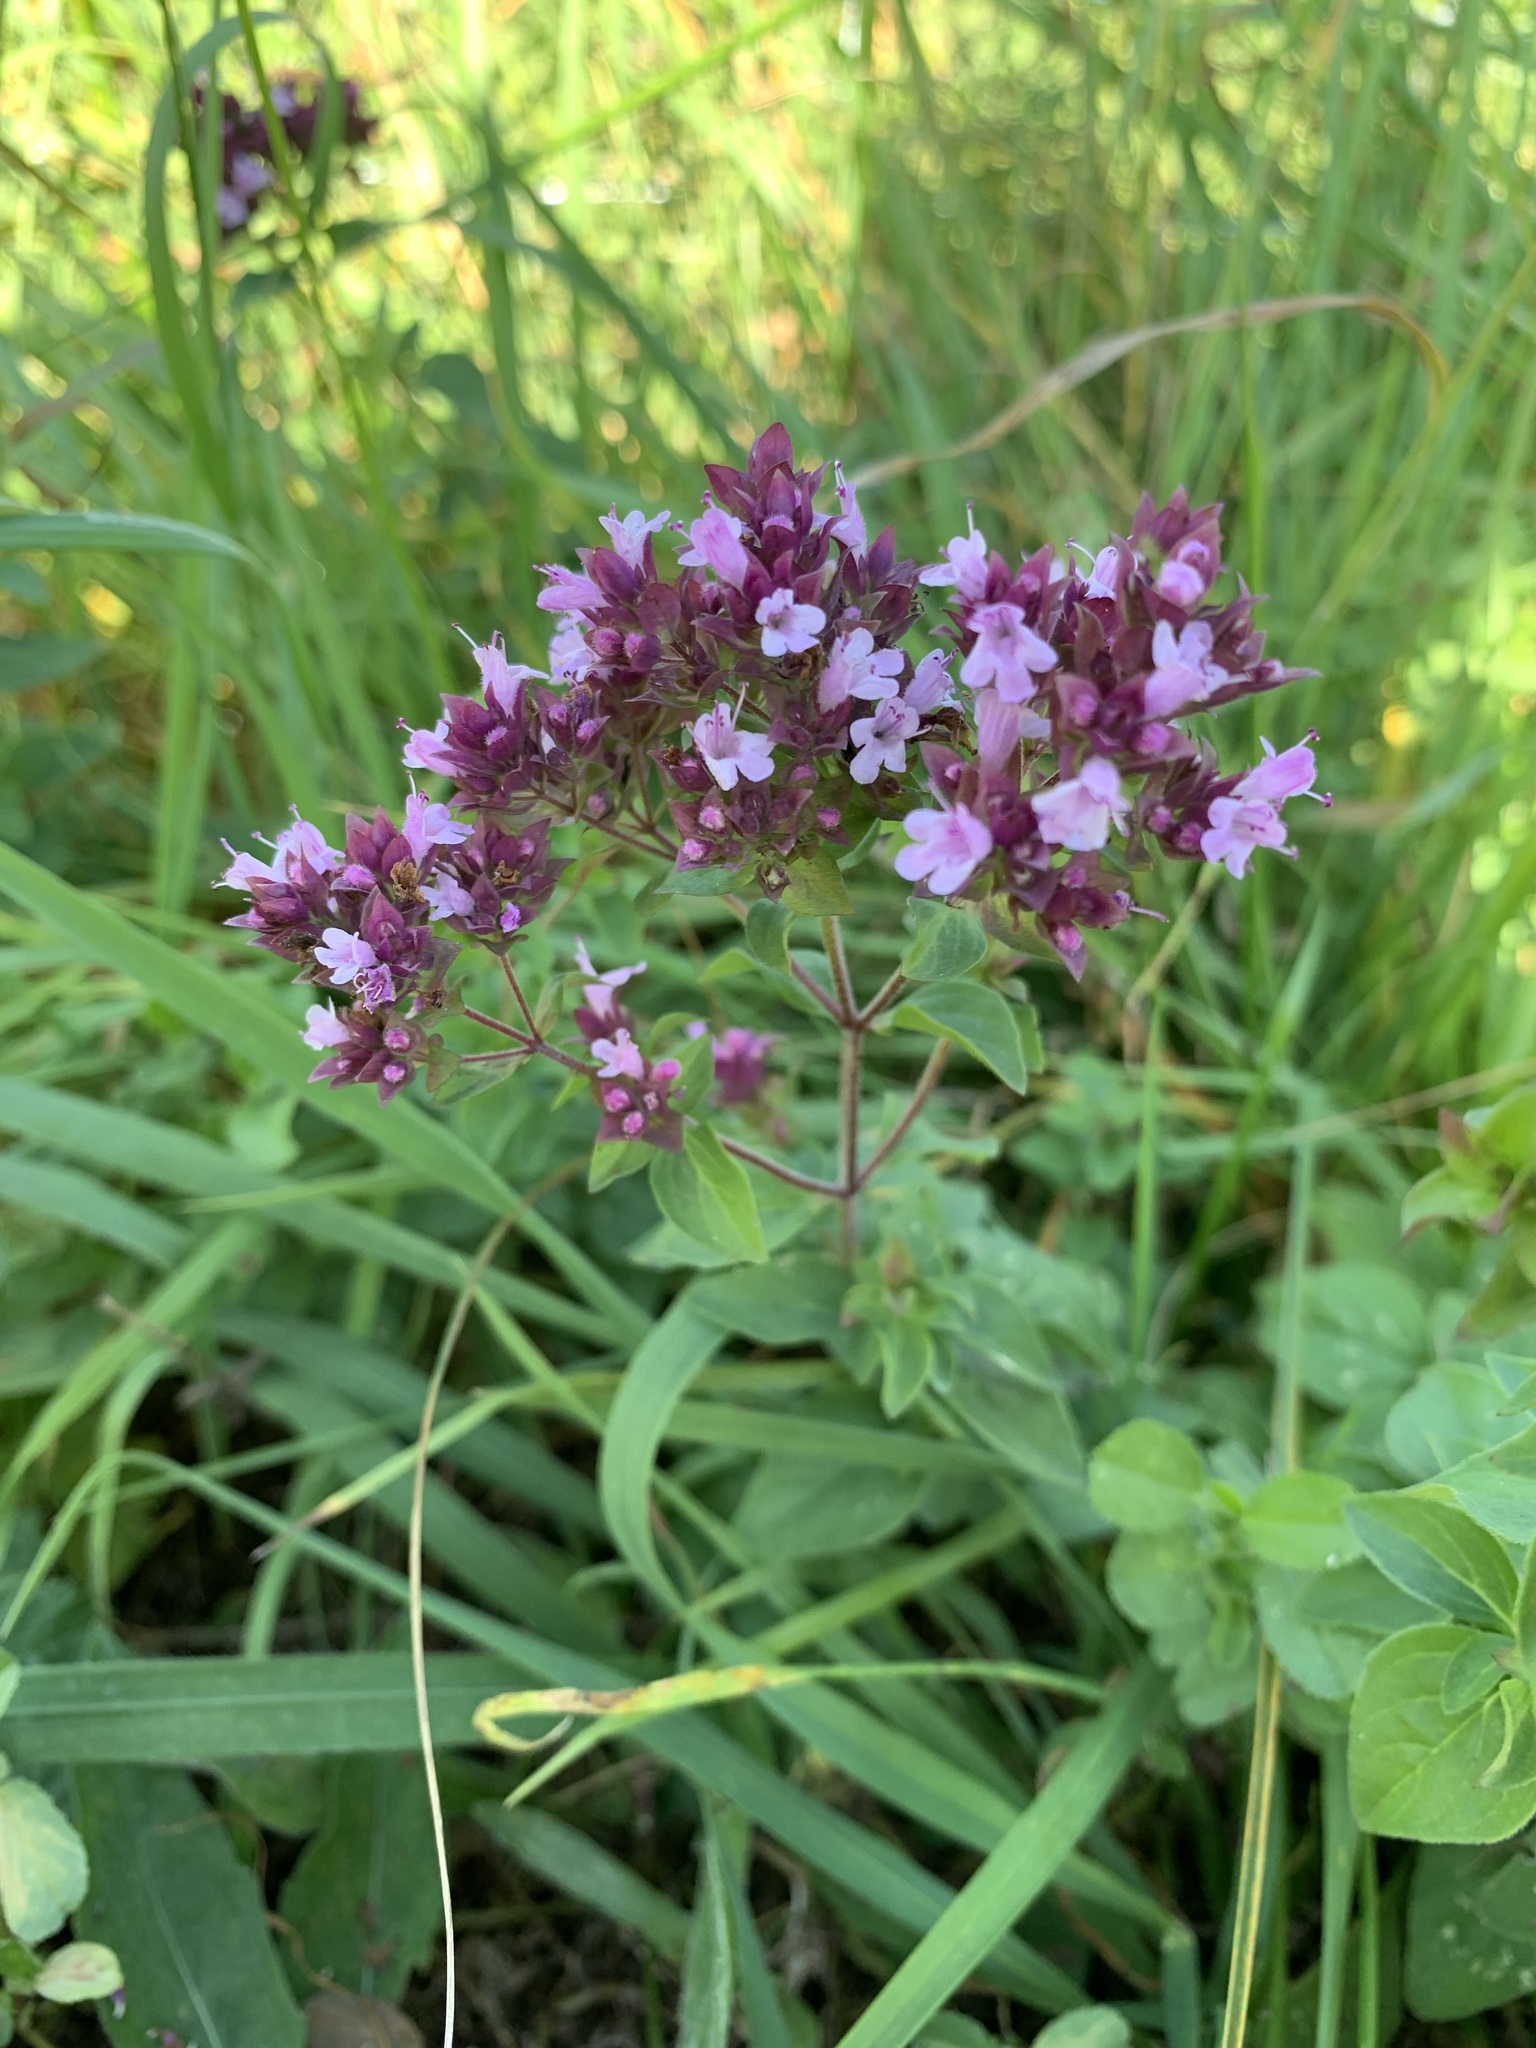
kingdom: Plantae
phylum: Tracheophyta
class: Magnoliopsida
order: Lamiales
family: Lamiaceae
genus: Origanum
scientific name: Origanum vulgare
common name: Wild marjoram
